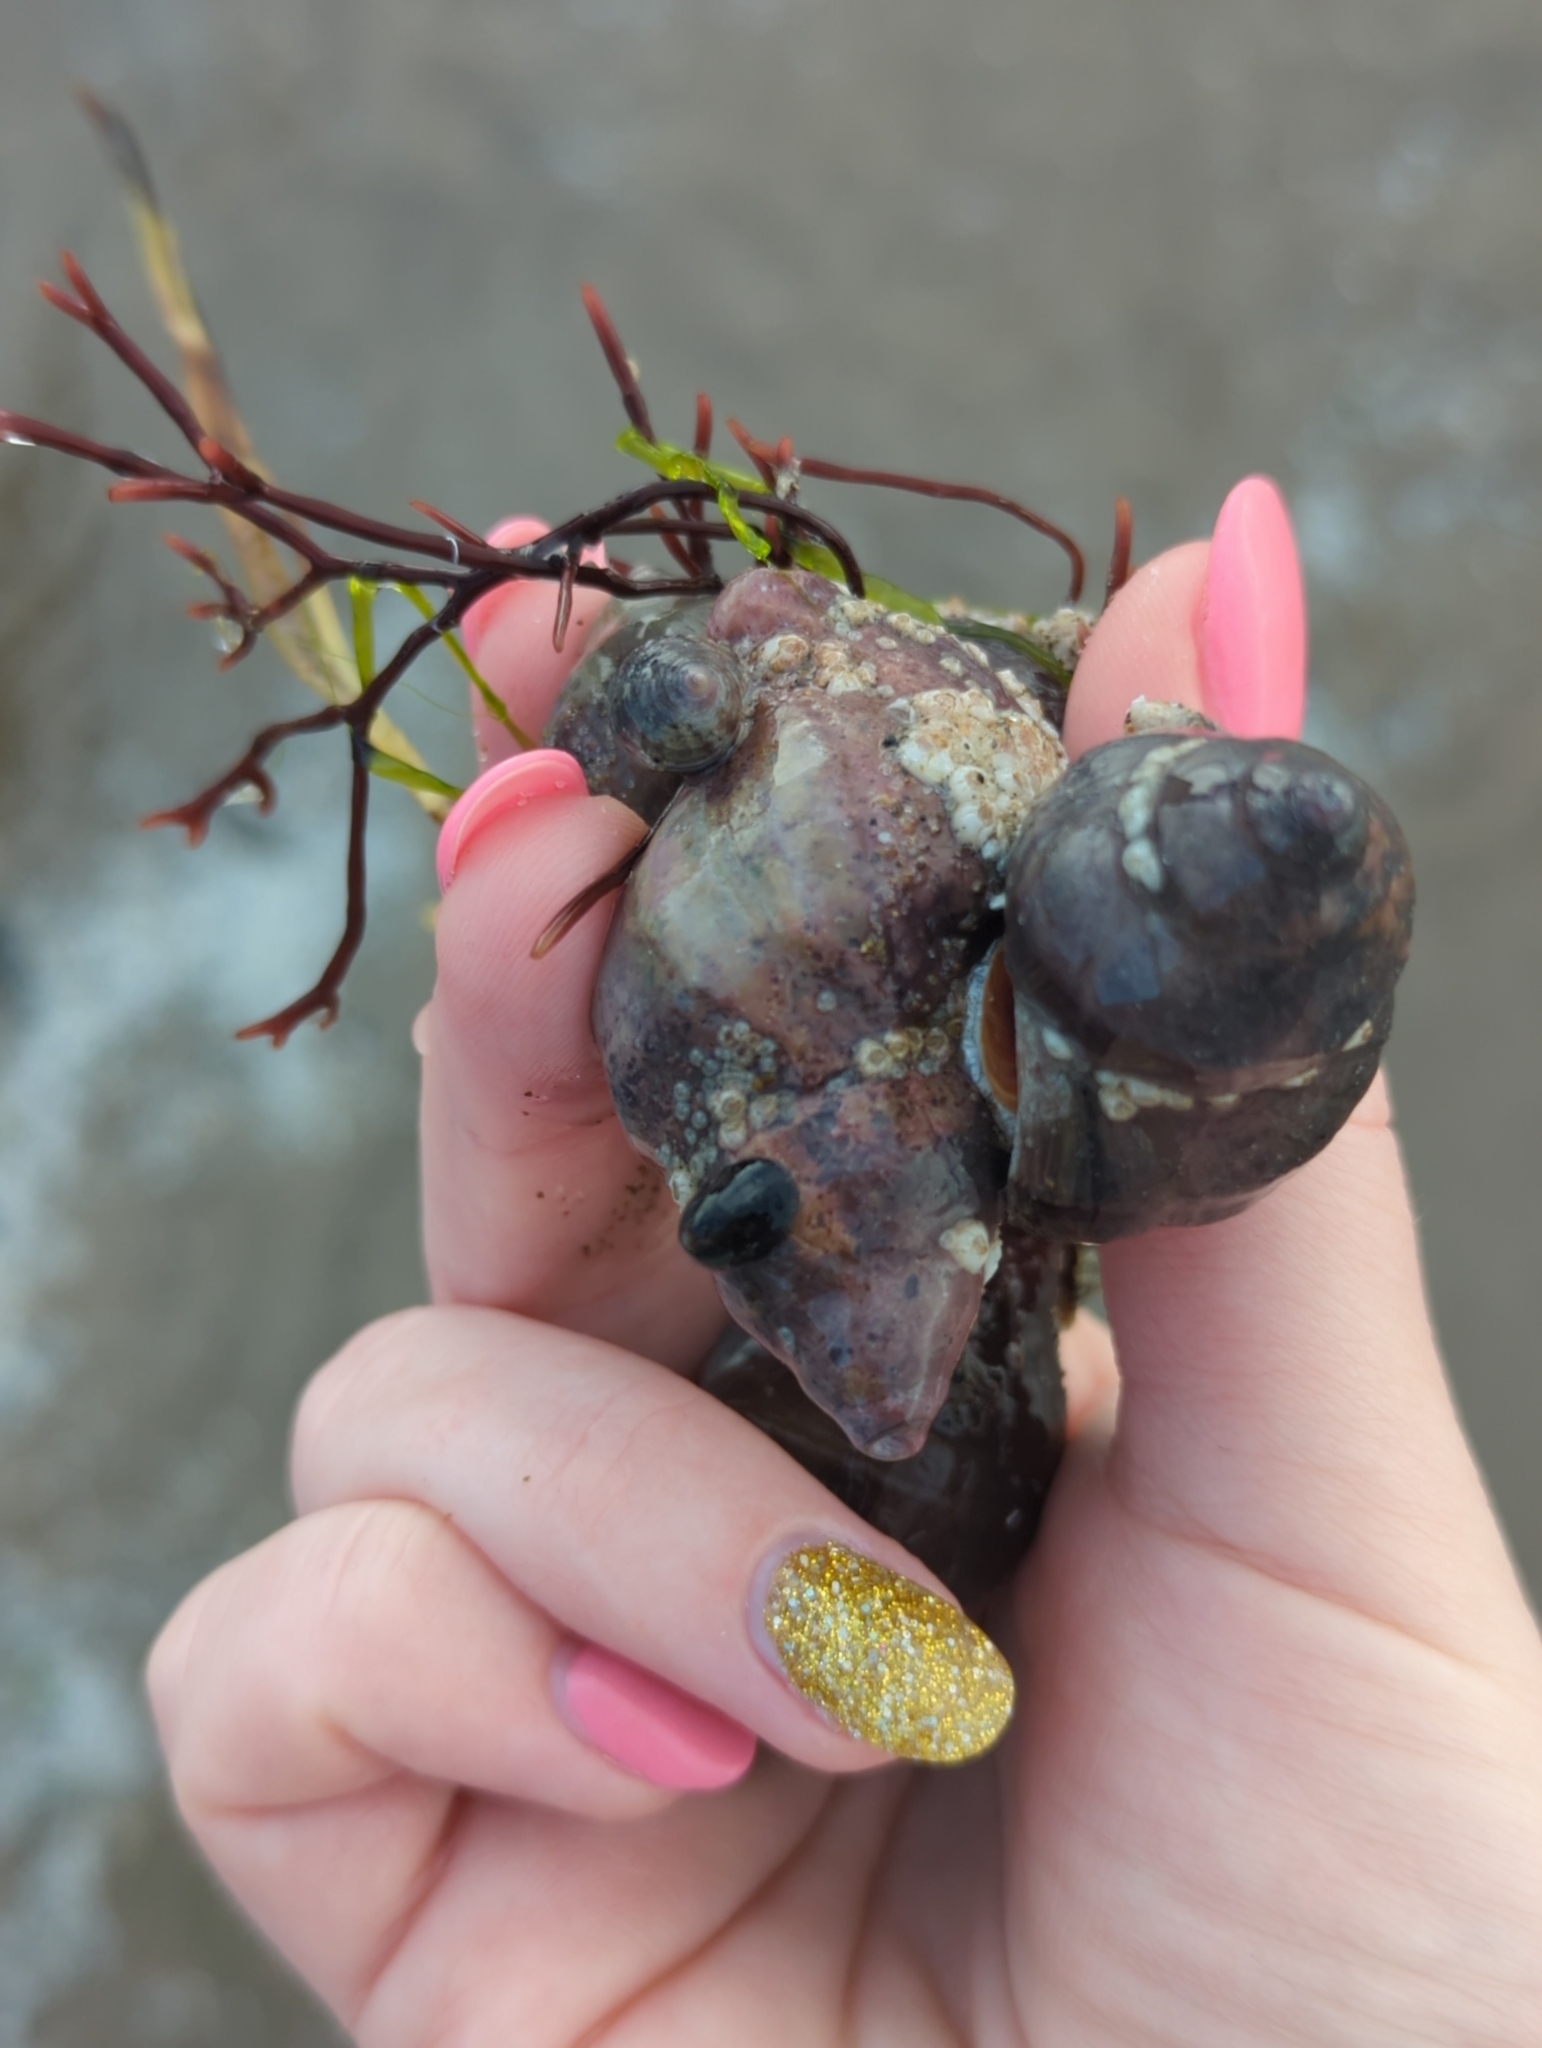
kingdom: Animalia
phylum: Mollusca
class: Gastropoda
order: Trochida
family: Tegulidae
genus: Tegula
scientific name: Tegula funebralis
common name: Black tegula
